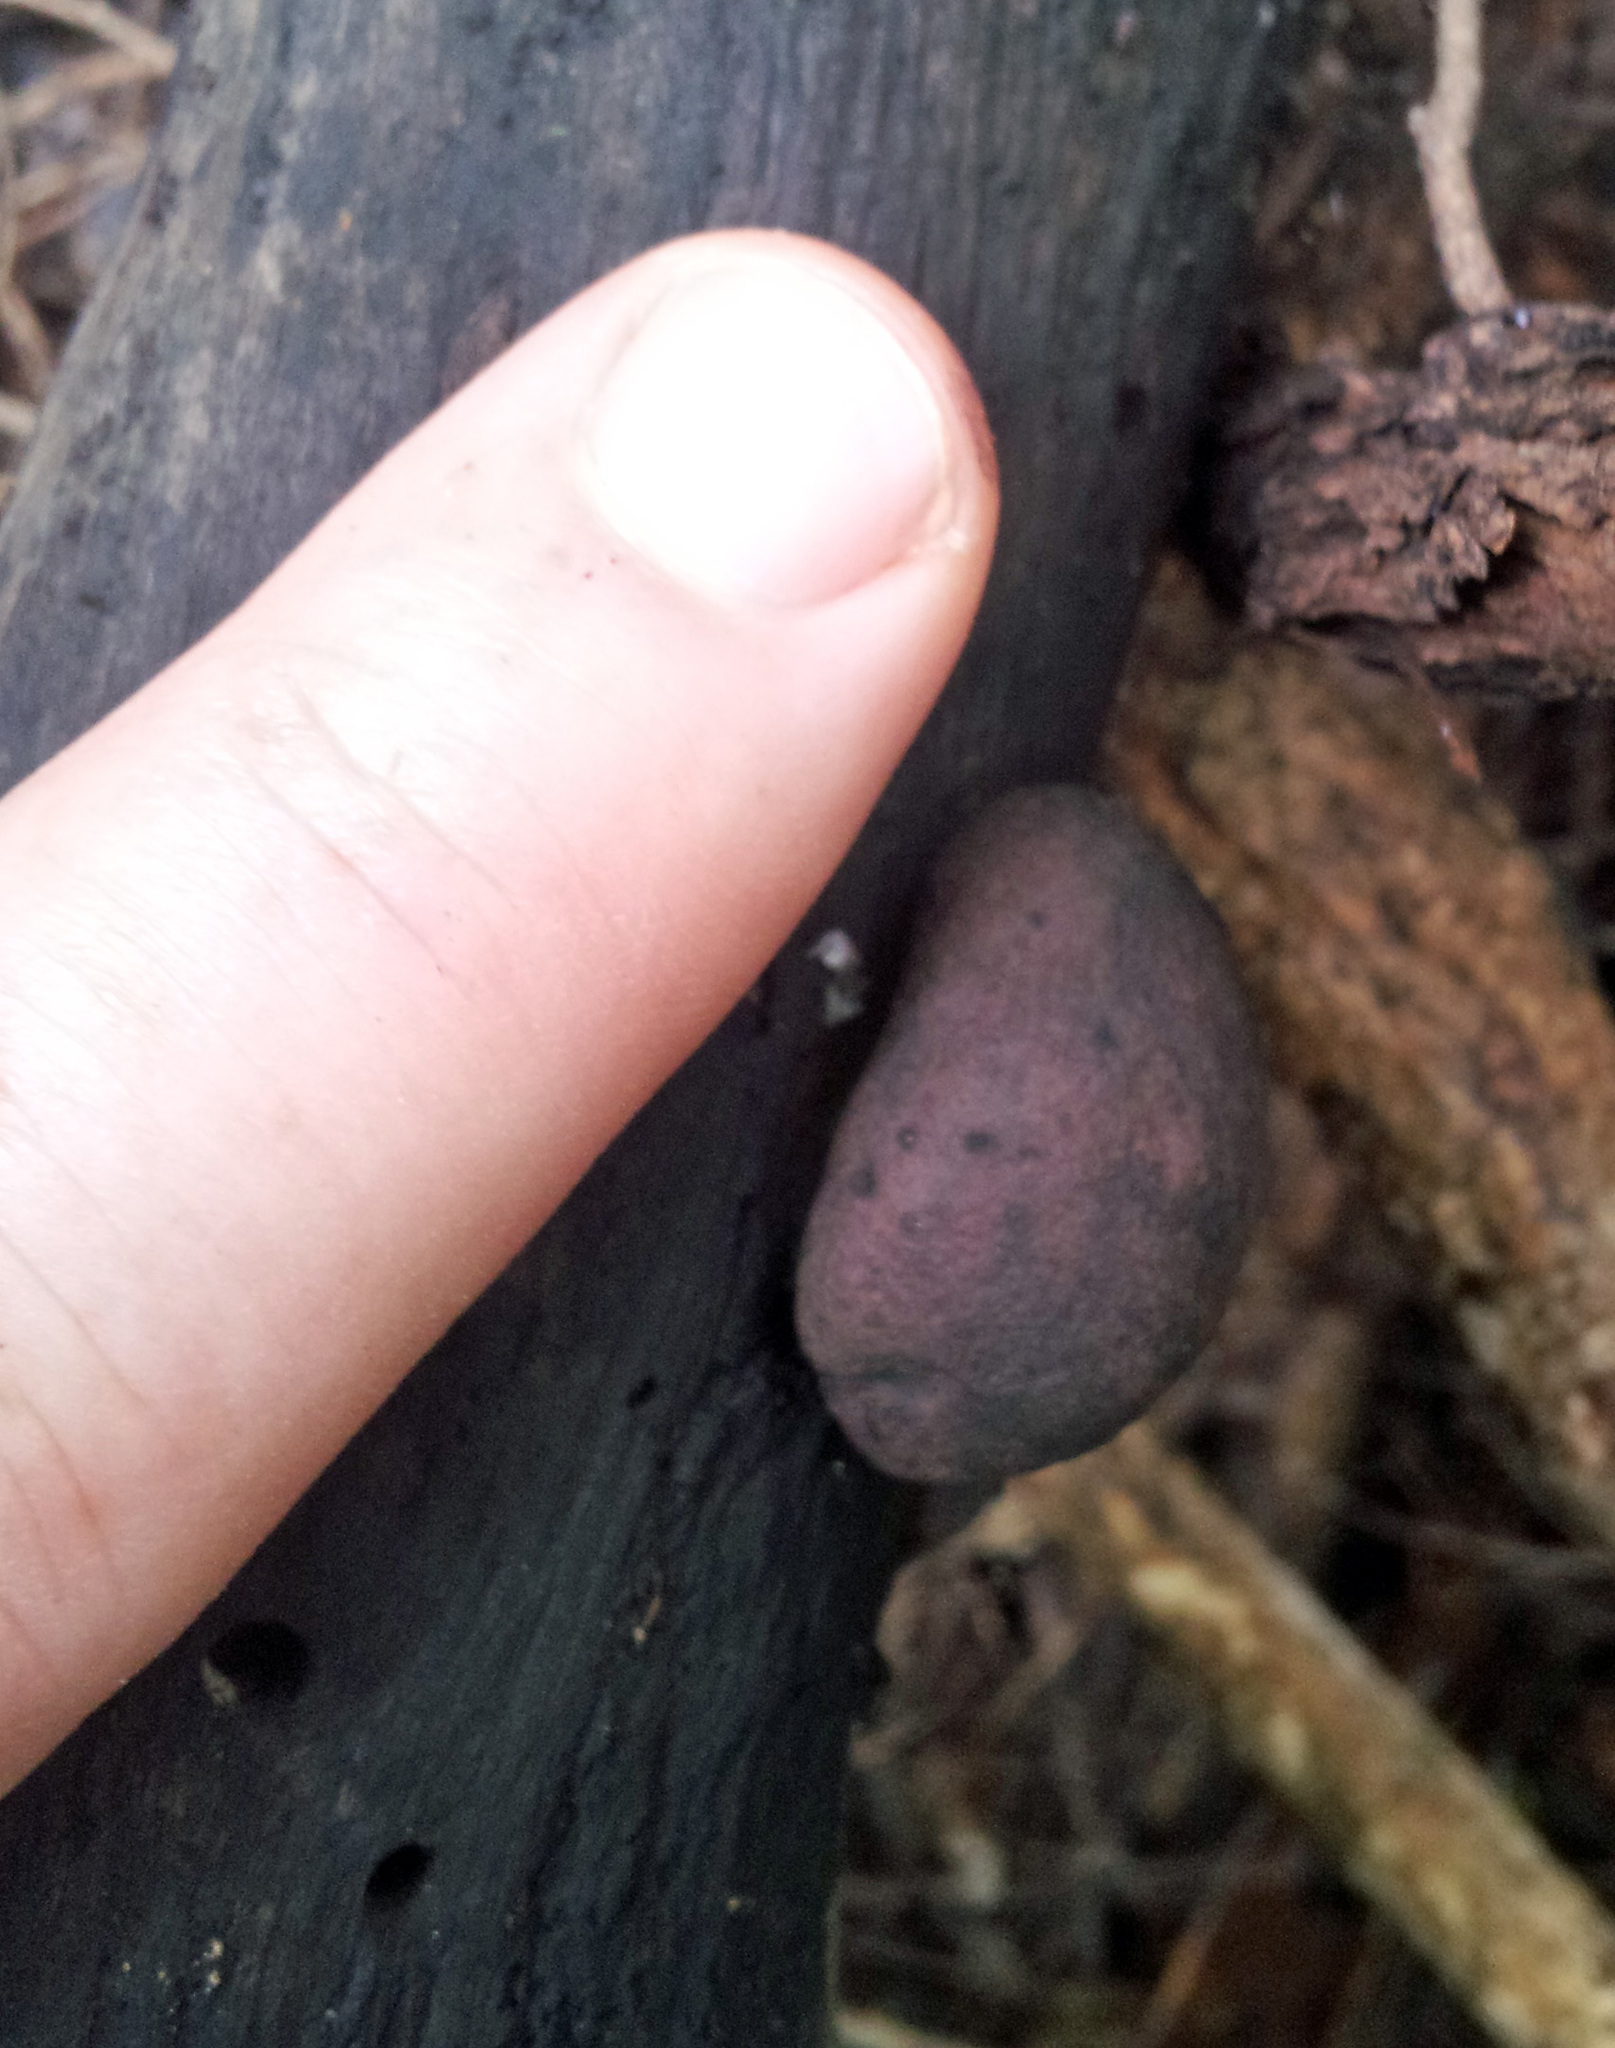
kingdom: Fungi
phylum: Ascomycota
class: Sordariomycetes
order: Xylariales
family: Hypoxylaceae
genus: Daldinia
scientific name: Daldinia dennisii
